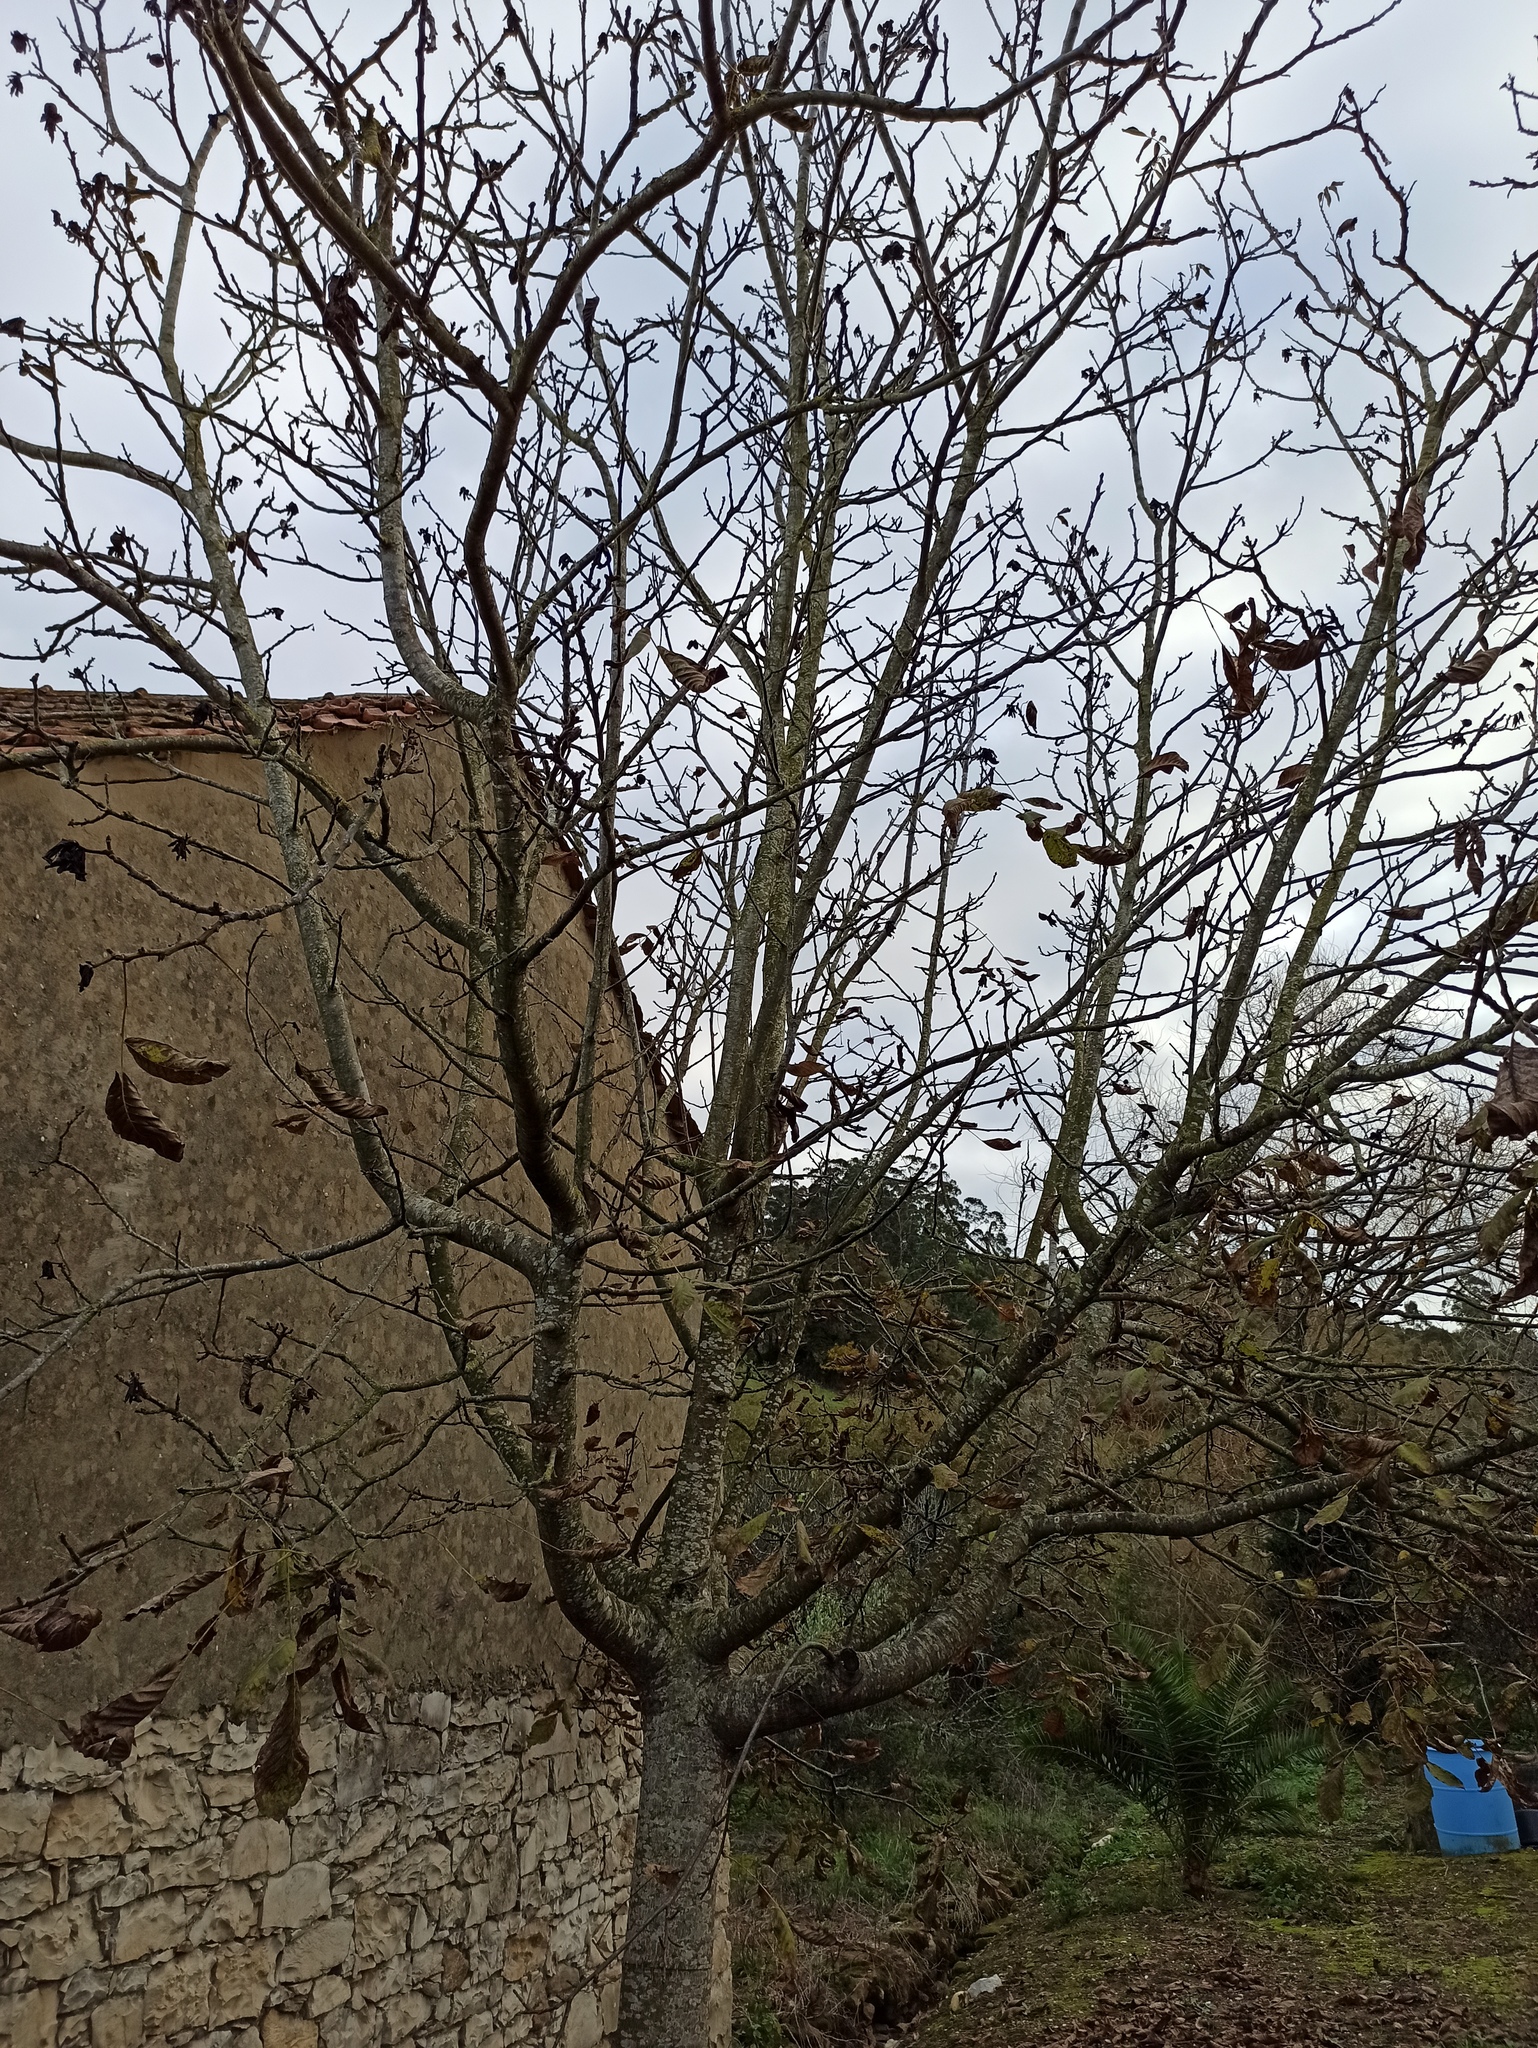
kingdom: Plantae
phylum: Tracheophyta
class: Magnoliopsida
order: Fagales
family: Juglandaceae
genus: Juglans
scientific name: Juglans regia
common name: Walnut
